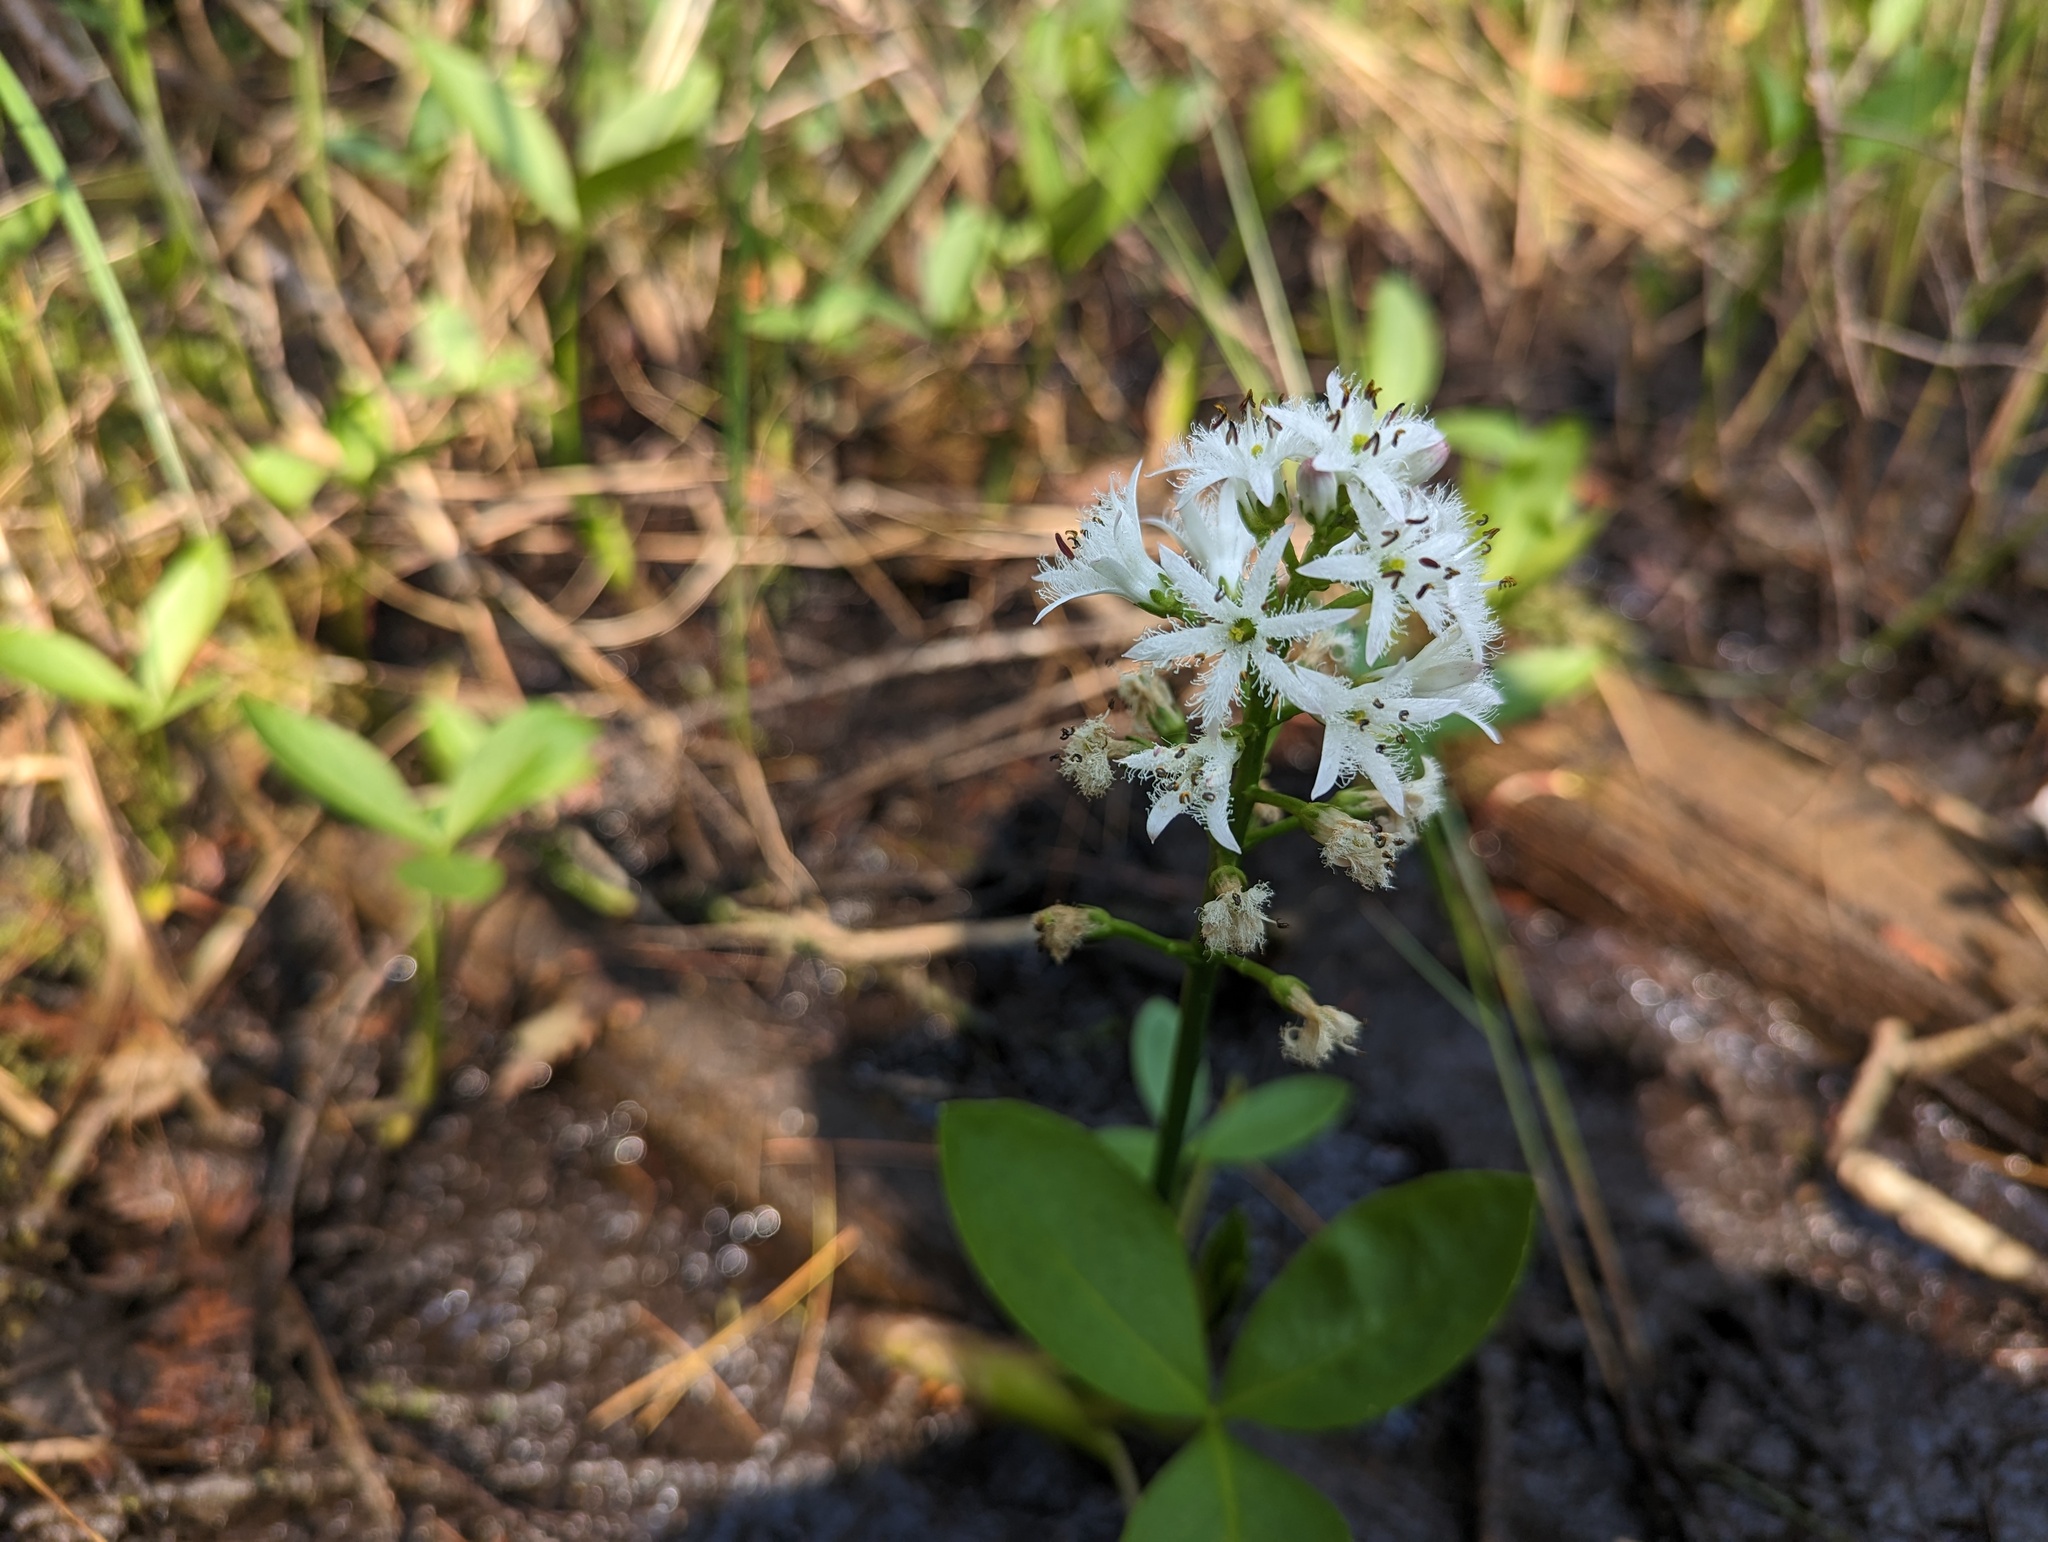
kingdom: Plantae
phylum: Tracheophyta
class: Magnoliopsida
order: Asterales
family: Menyanthaceae
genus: Menyanthes
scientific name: Menyanthes trifoliata
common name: Bogbean
